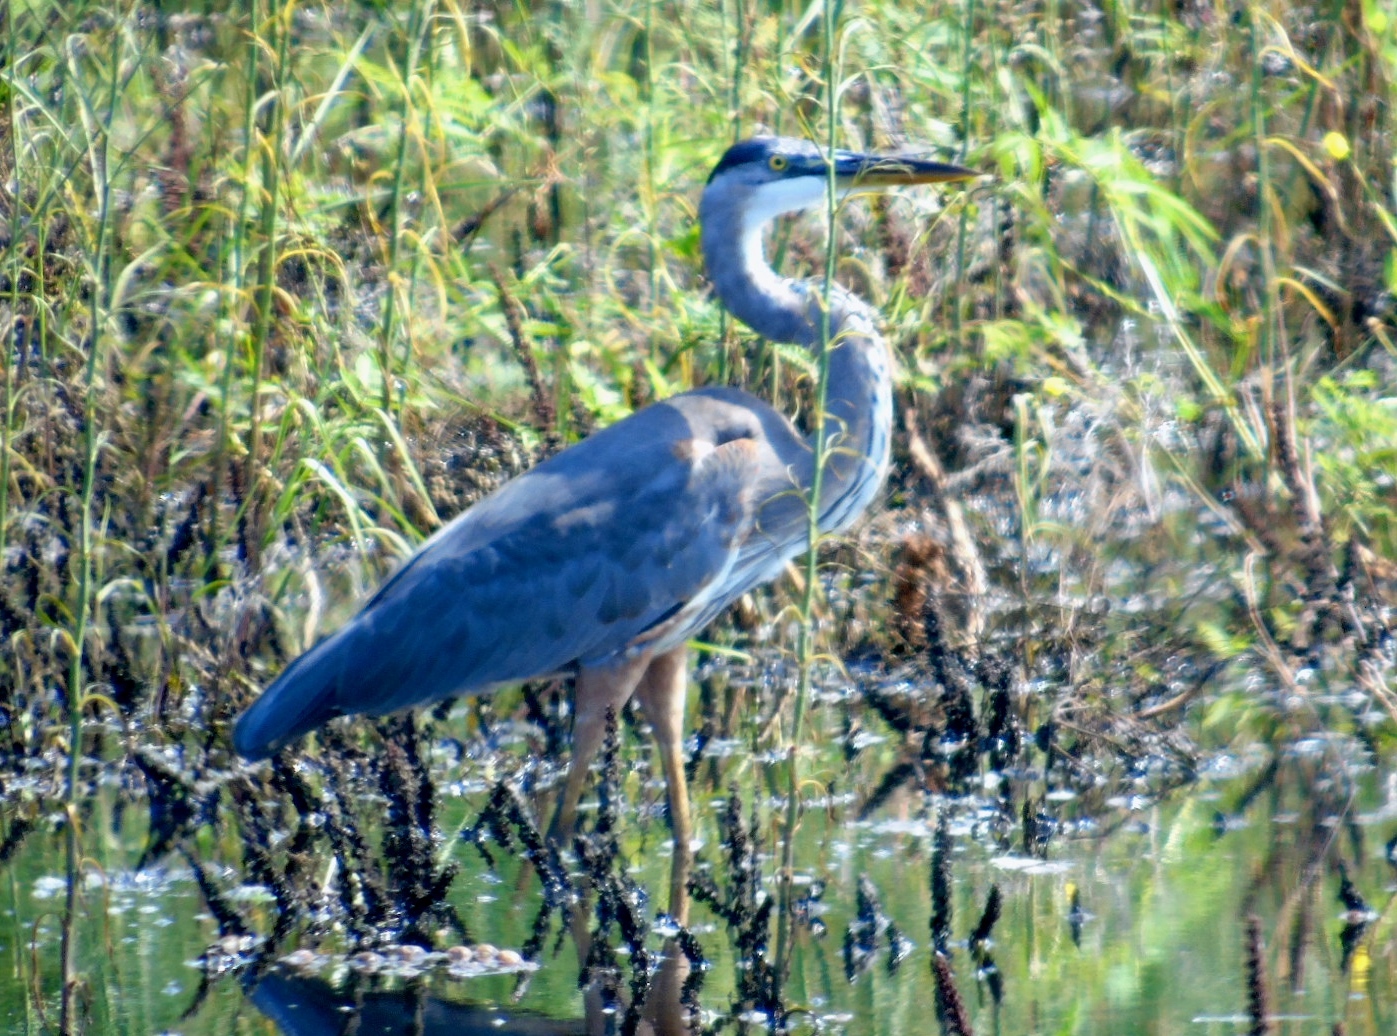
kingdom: Animalia
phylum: Chordata
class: Aves
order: Pelecaniformes
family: Ardeidae
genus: Ardea
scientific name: Ardea herodias
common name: Great blue heron
